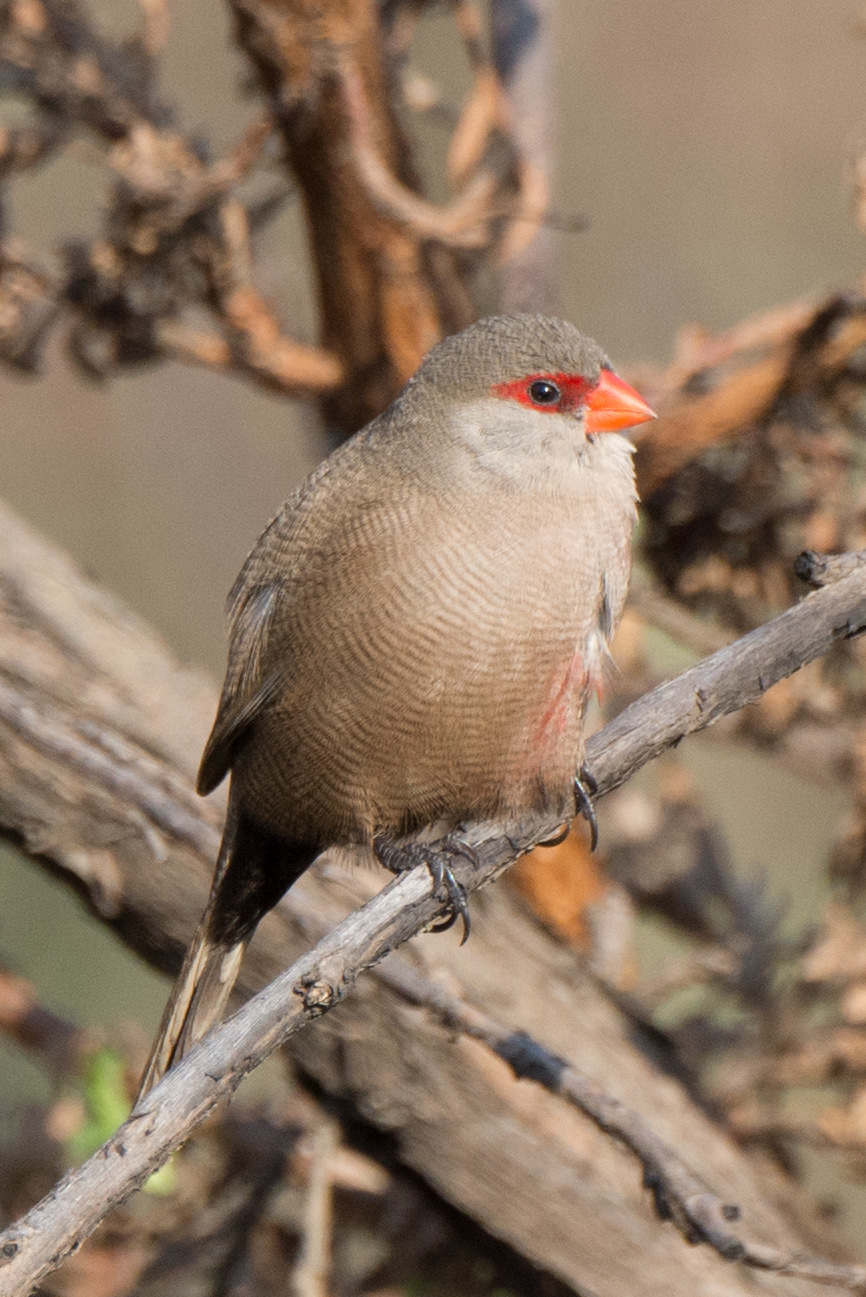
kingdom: Animalia
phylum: Chordata
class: Aves
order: Passeriformes
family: Estrildidae
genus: Estrilda
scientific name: Estrilda astrild
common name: Common waxbill
